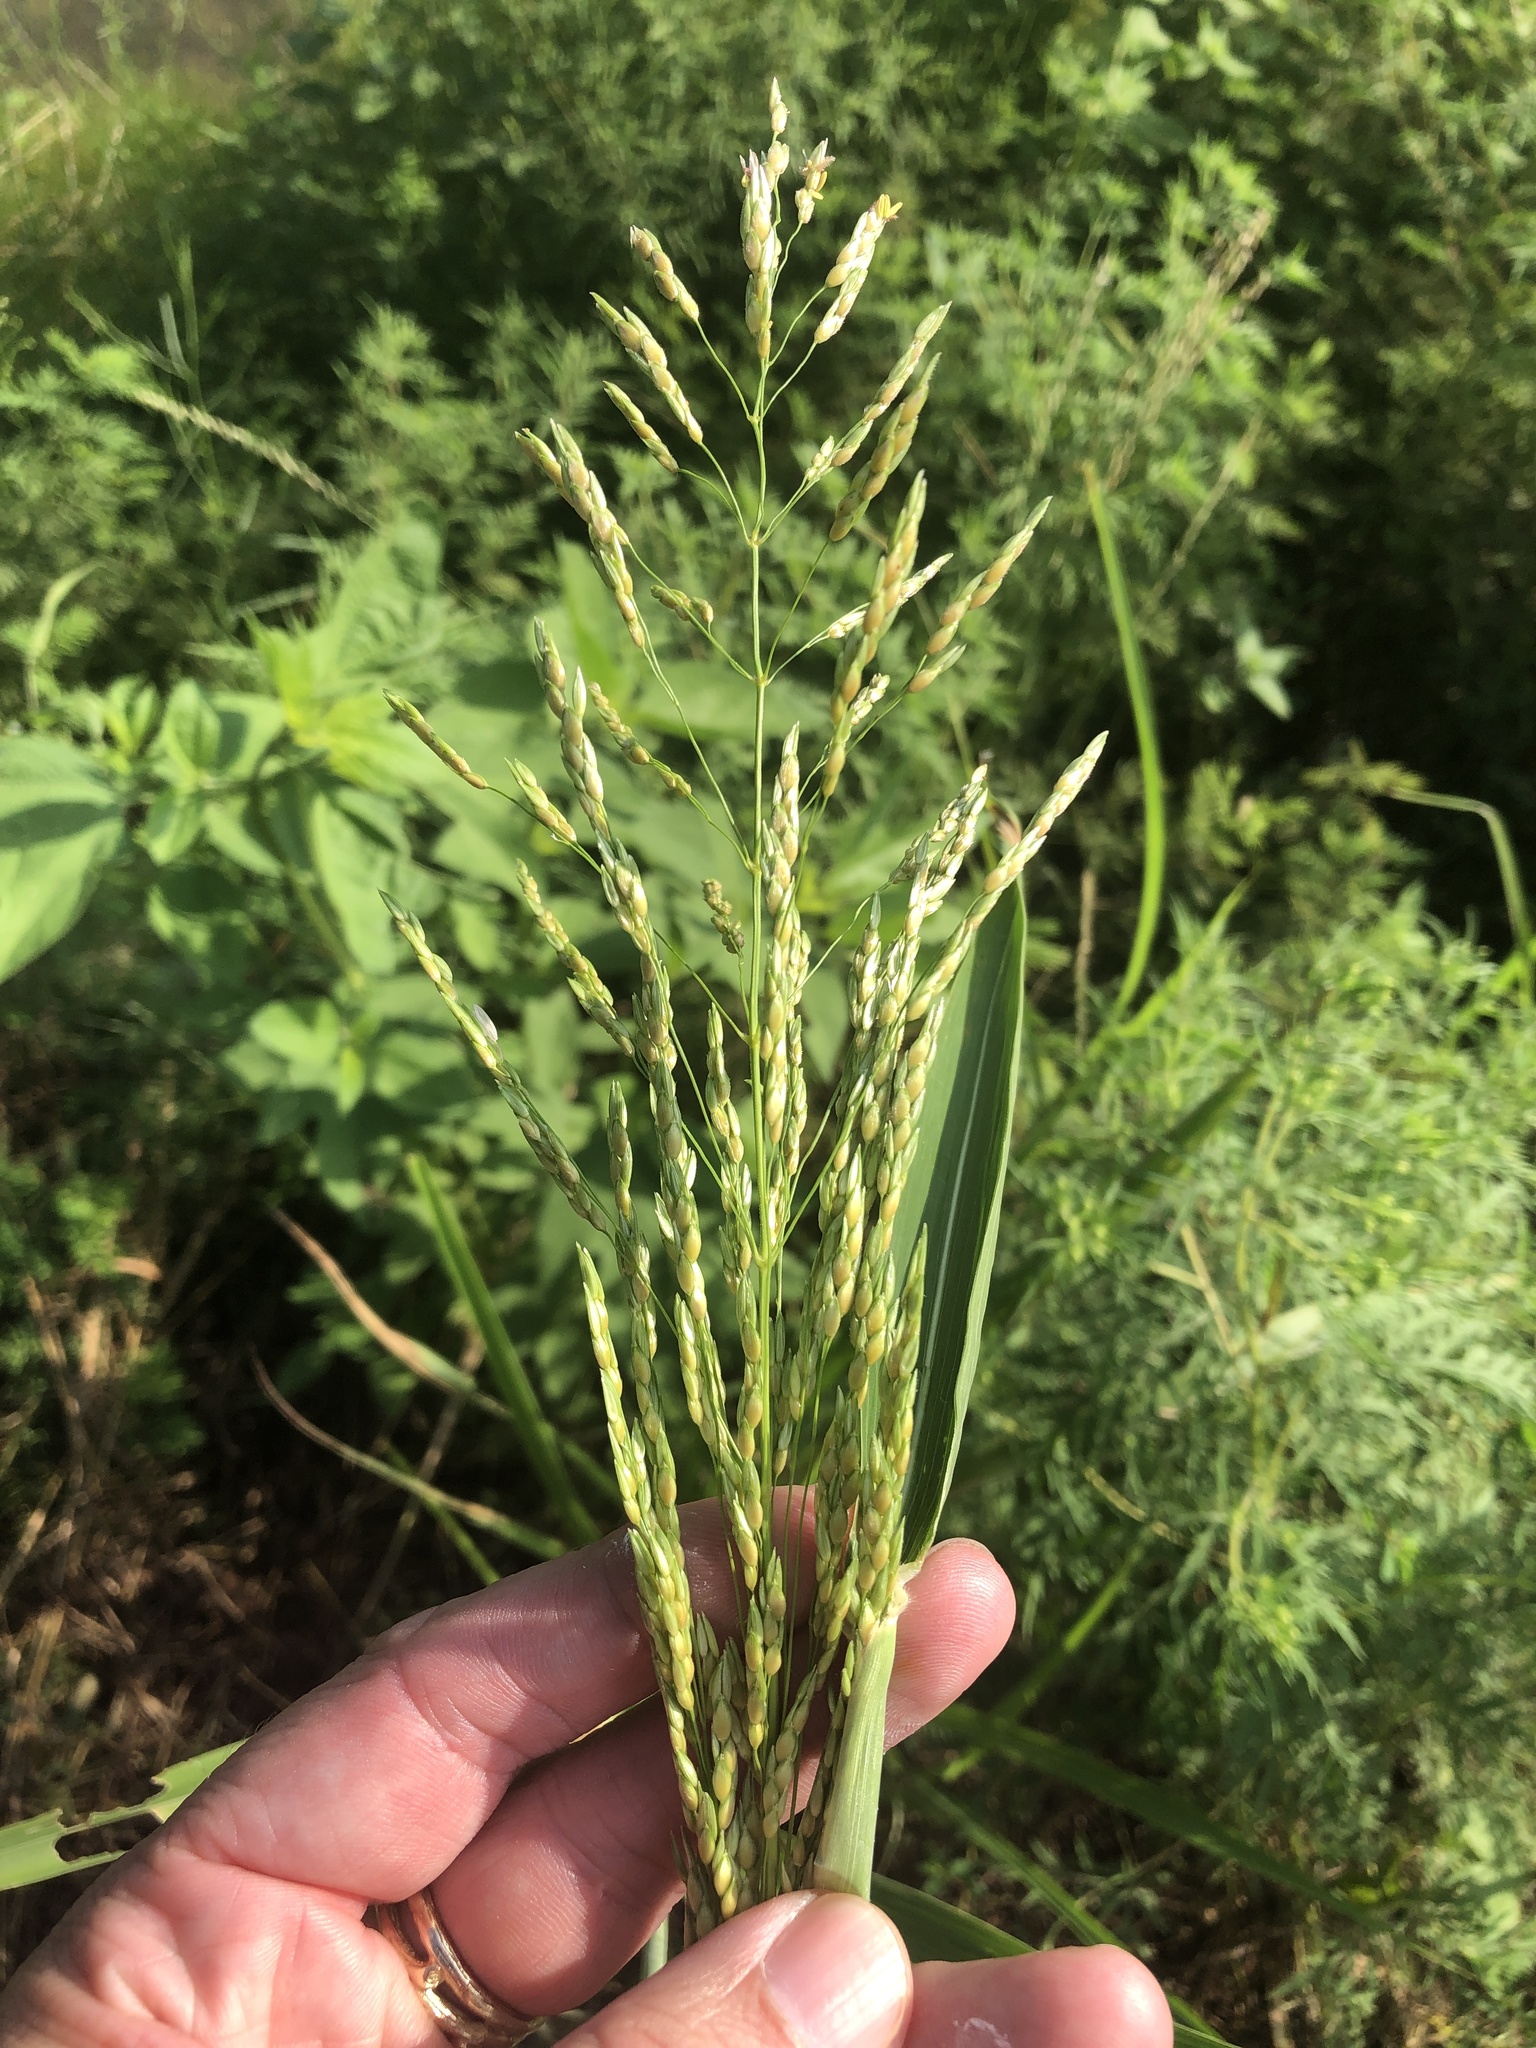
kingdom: Plantae
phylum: Tracheophyta
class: Liliopsida
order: Poales
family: Poaceae
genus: Sorghum
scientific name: Sorghum halepense
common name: Johnson-grass
